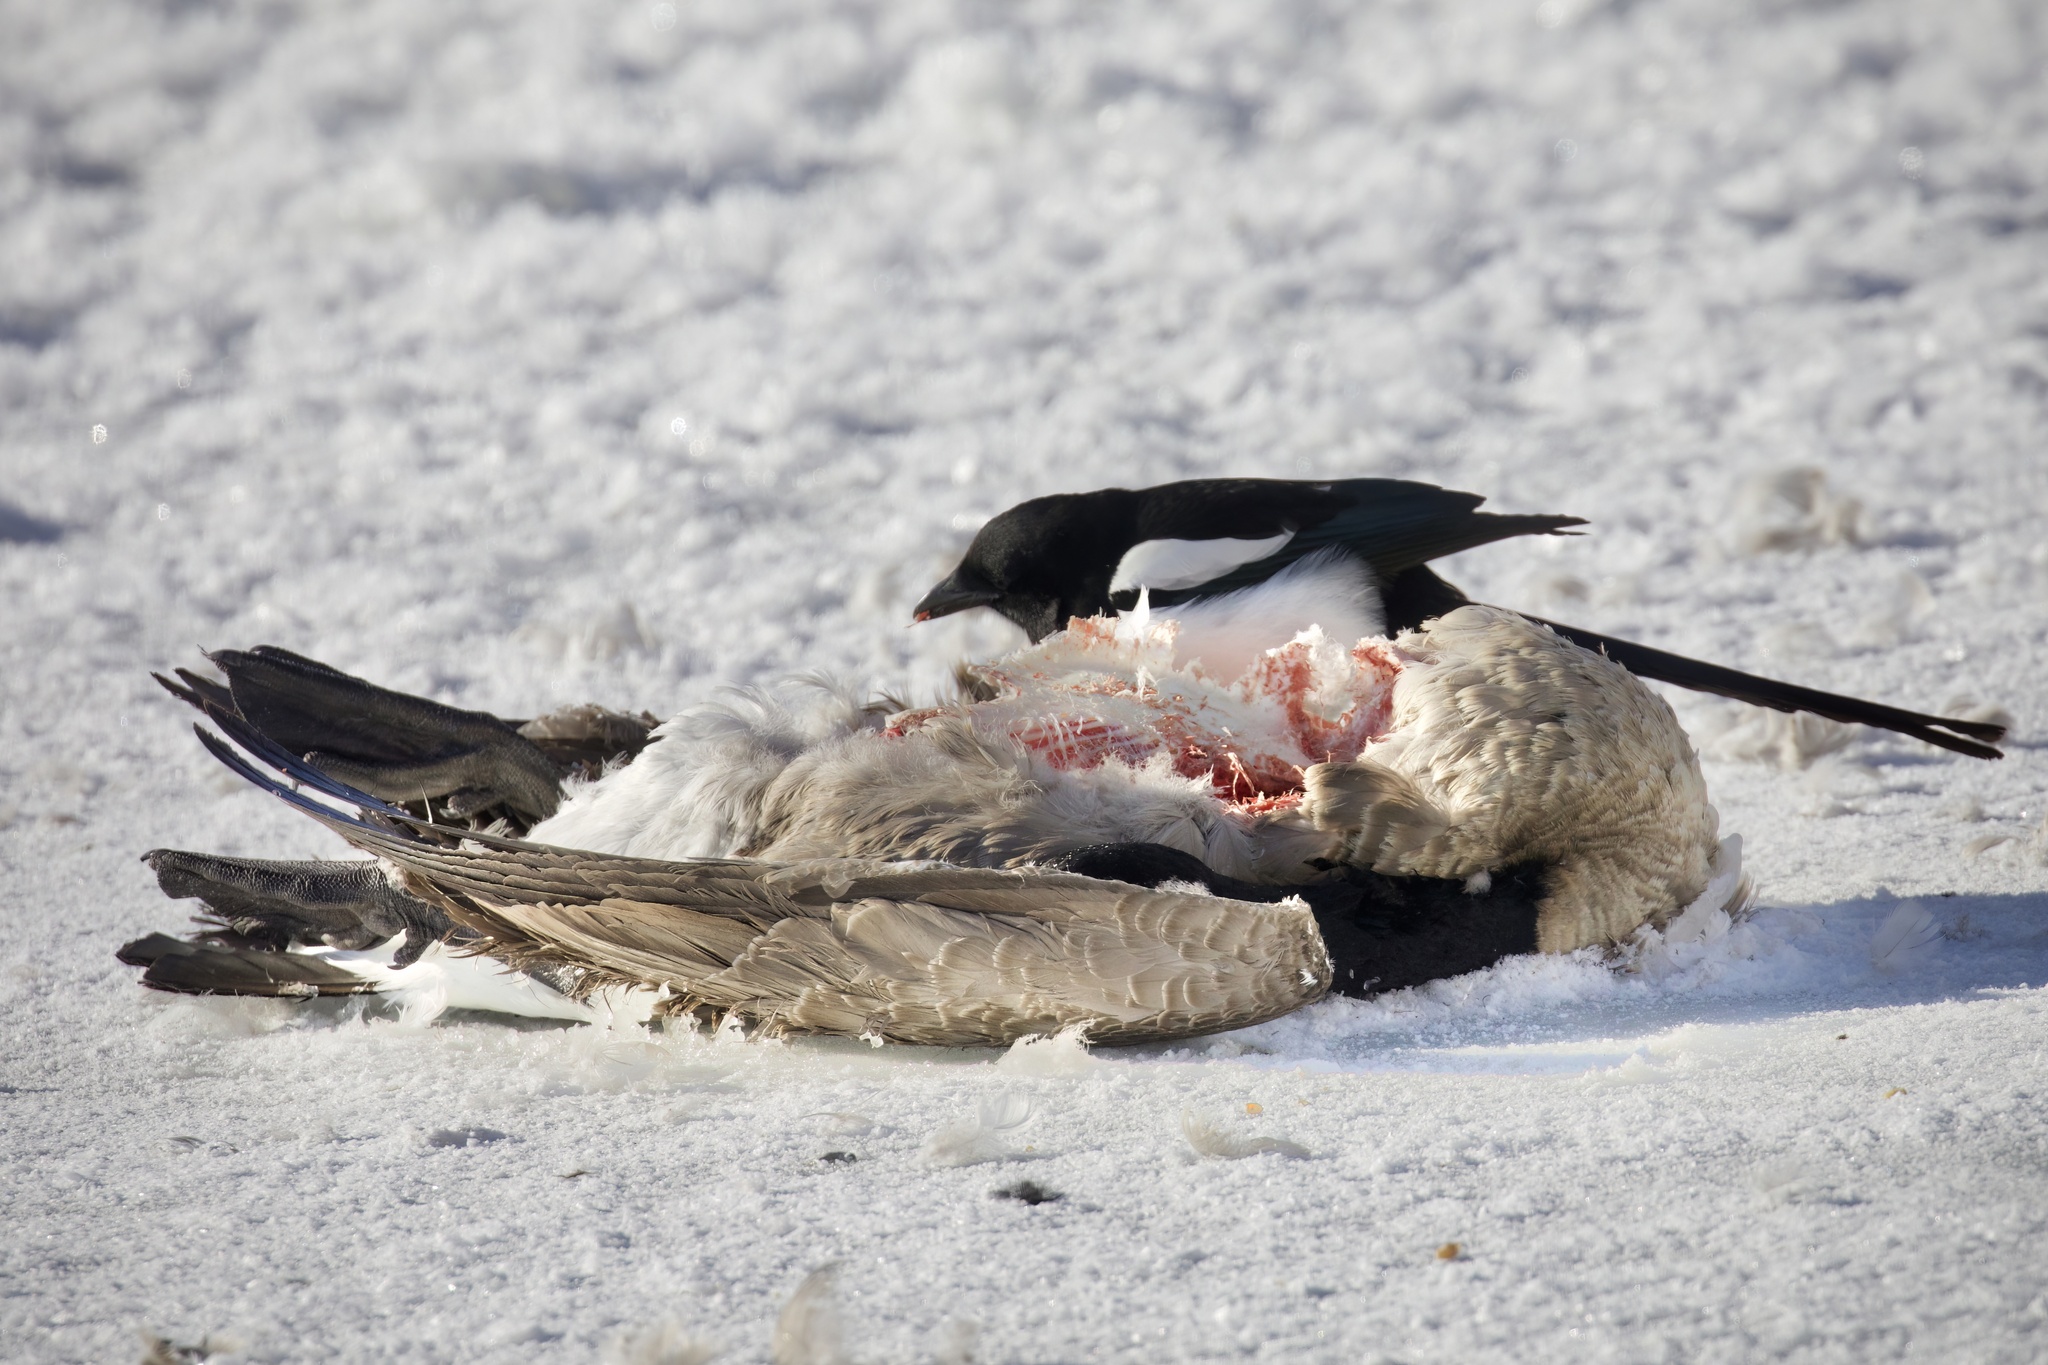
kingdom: Animalia
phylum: Chordata
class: Aves
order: Passeriformes
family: Corvidae
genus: Pica
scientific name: Pica hudsonia
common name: Black-billed magpie
